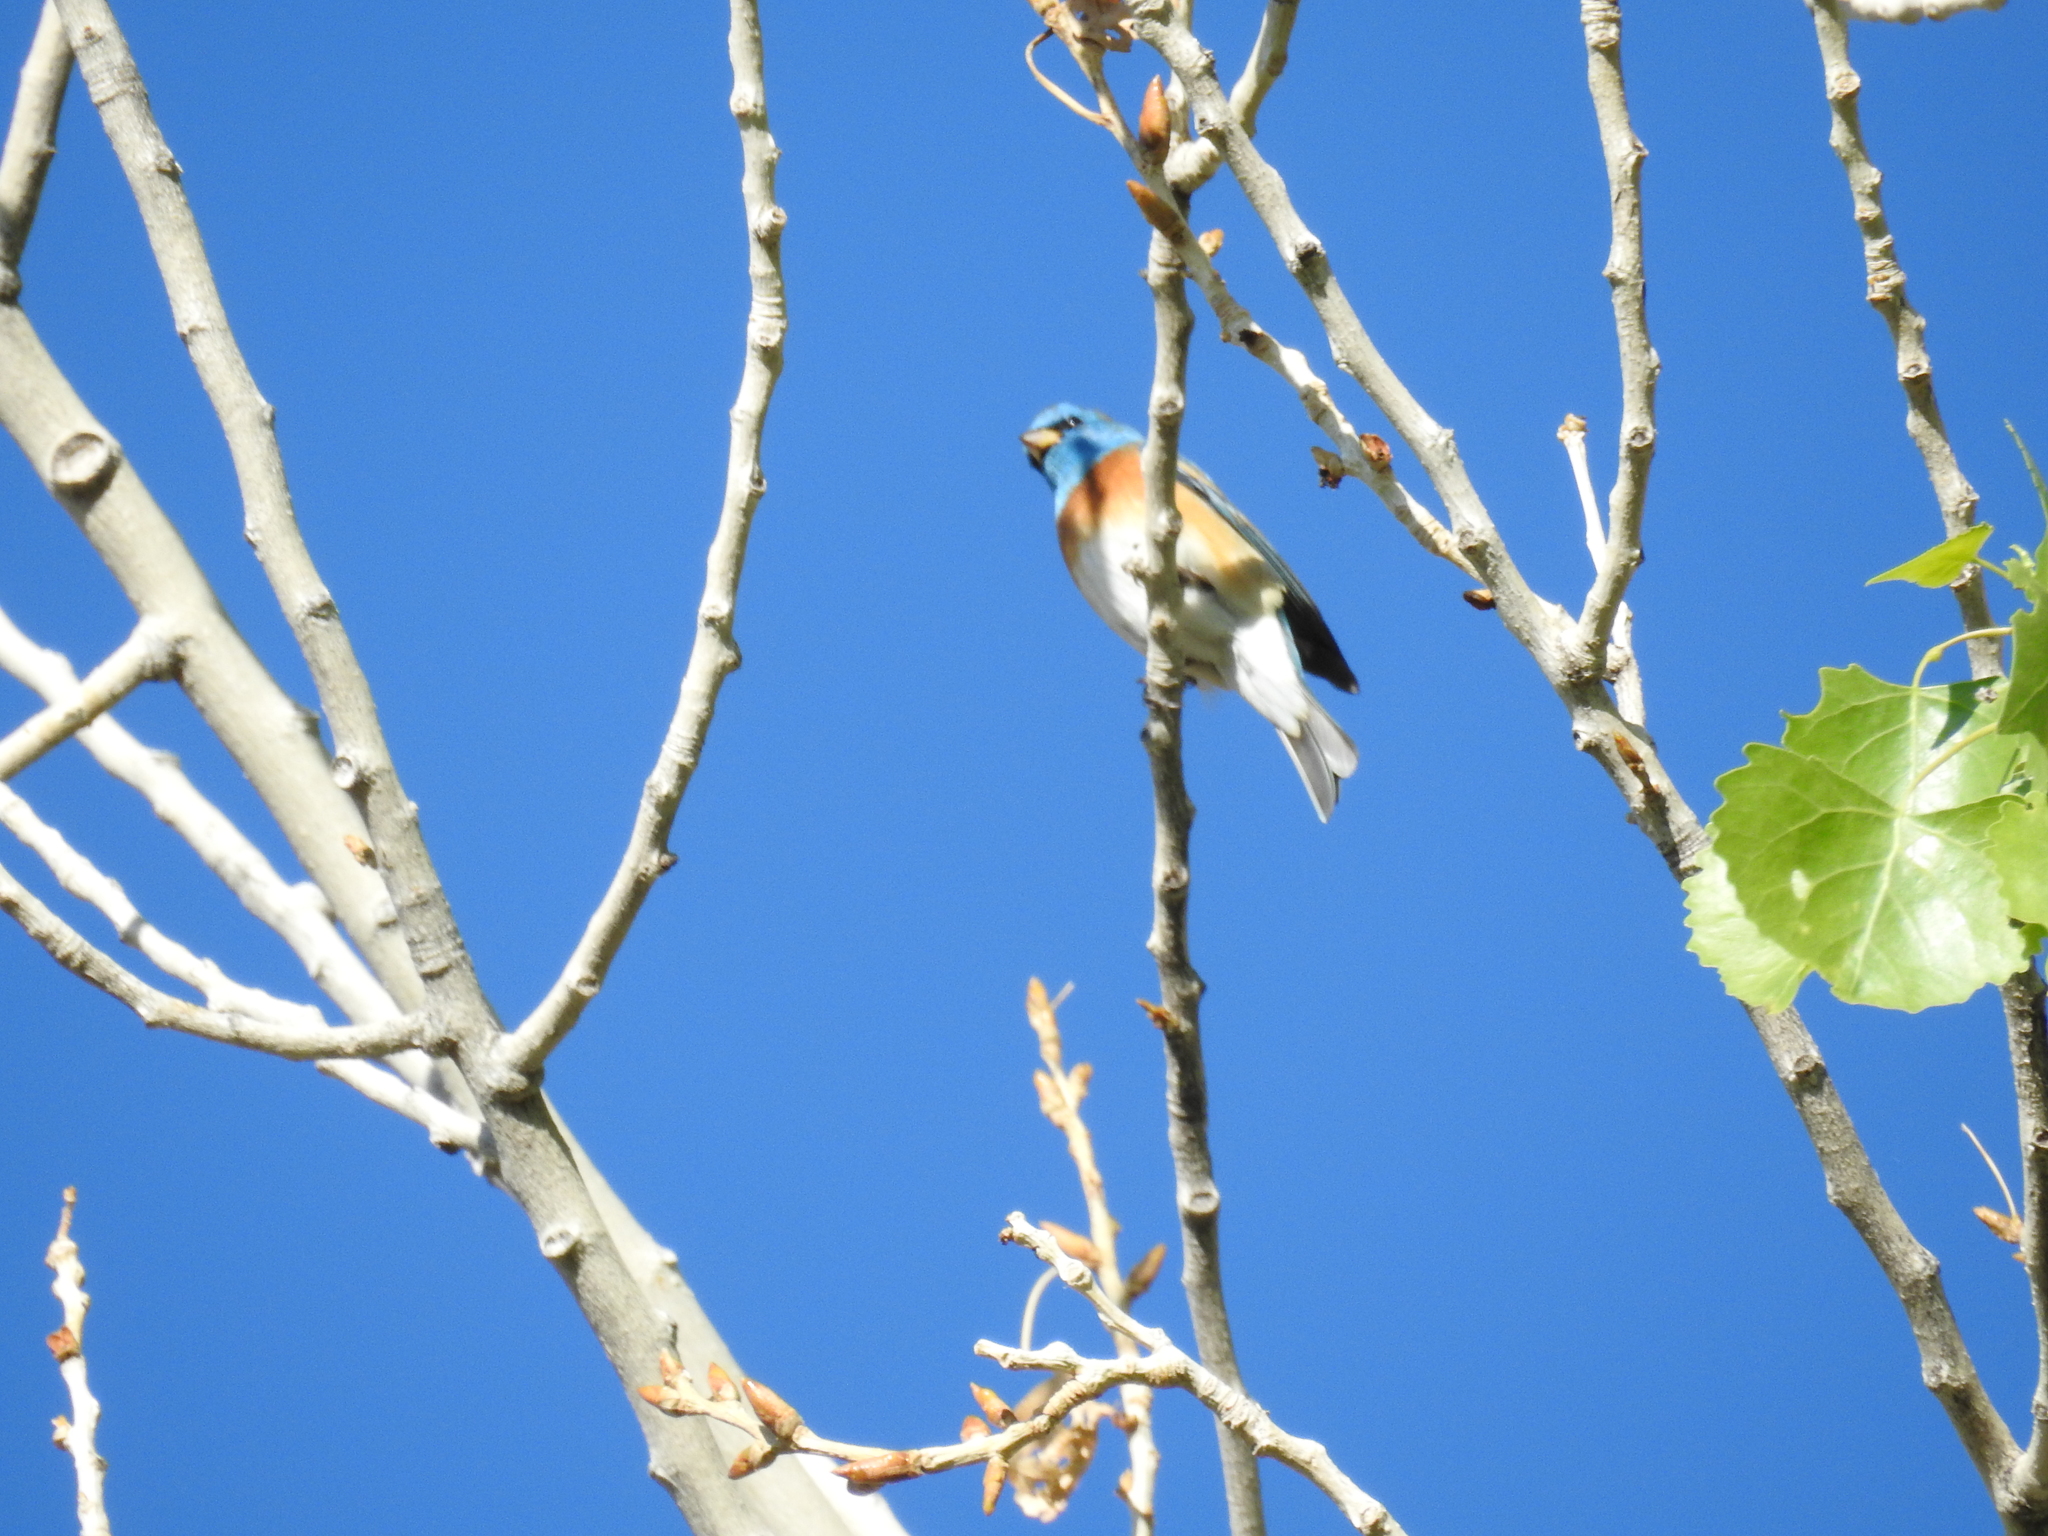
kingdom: Animalia
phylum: Chordata
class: Aves
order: Passeriformes
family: Cardinalidae
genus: Passerina
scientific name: Passerina amoena
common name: Lazuli bunting
